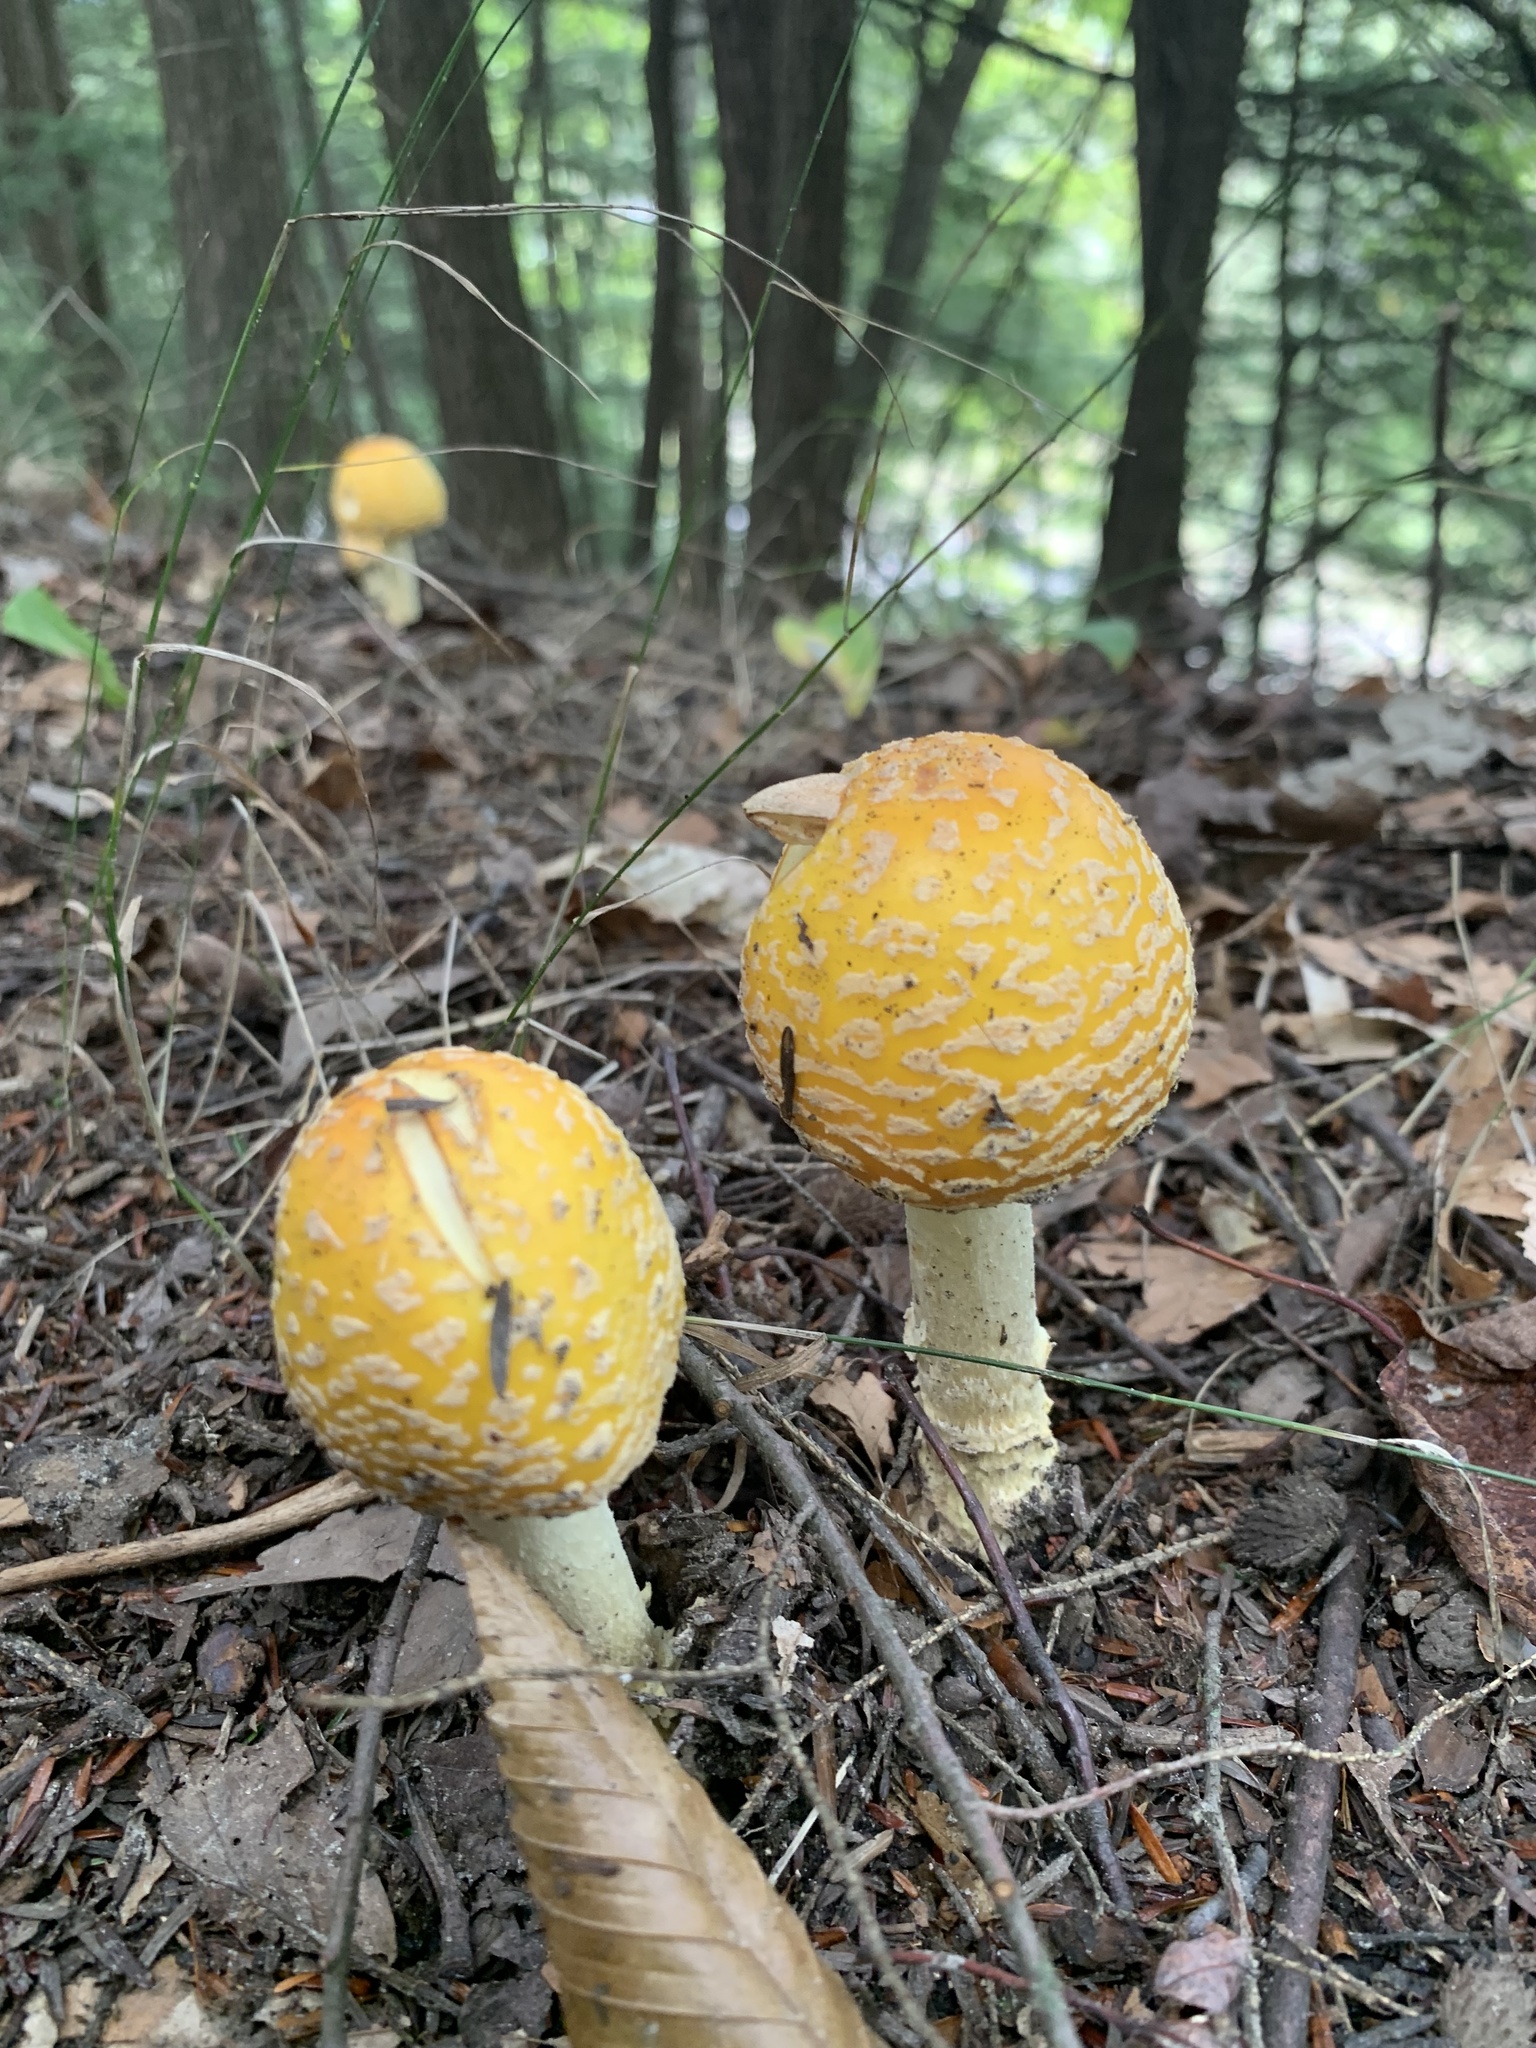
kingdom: Fungi
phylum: Basidiomycota
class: Agaricomycetes
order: Agaricales
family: Amanitaceae
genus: Amanita
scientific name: Amanita muscaria
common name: Fly agaric
